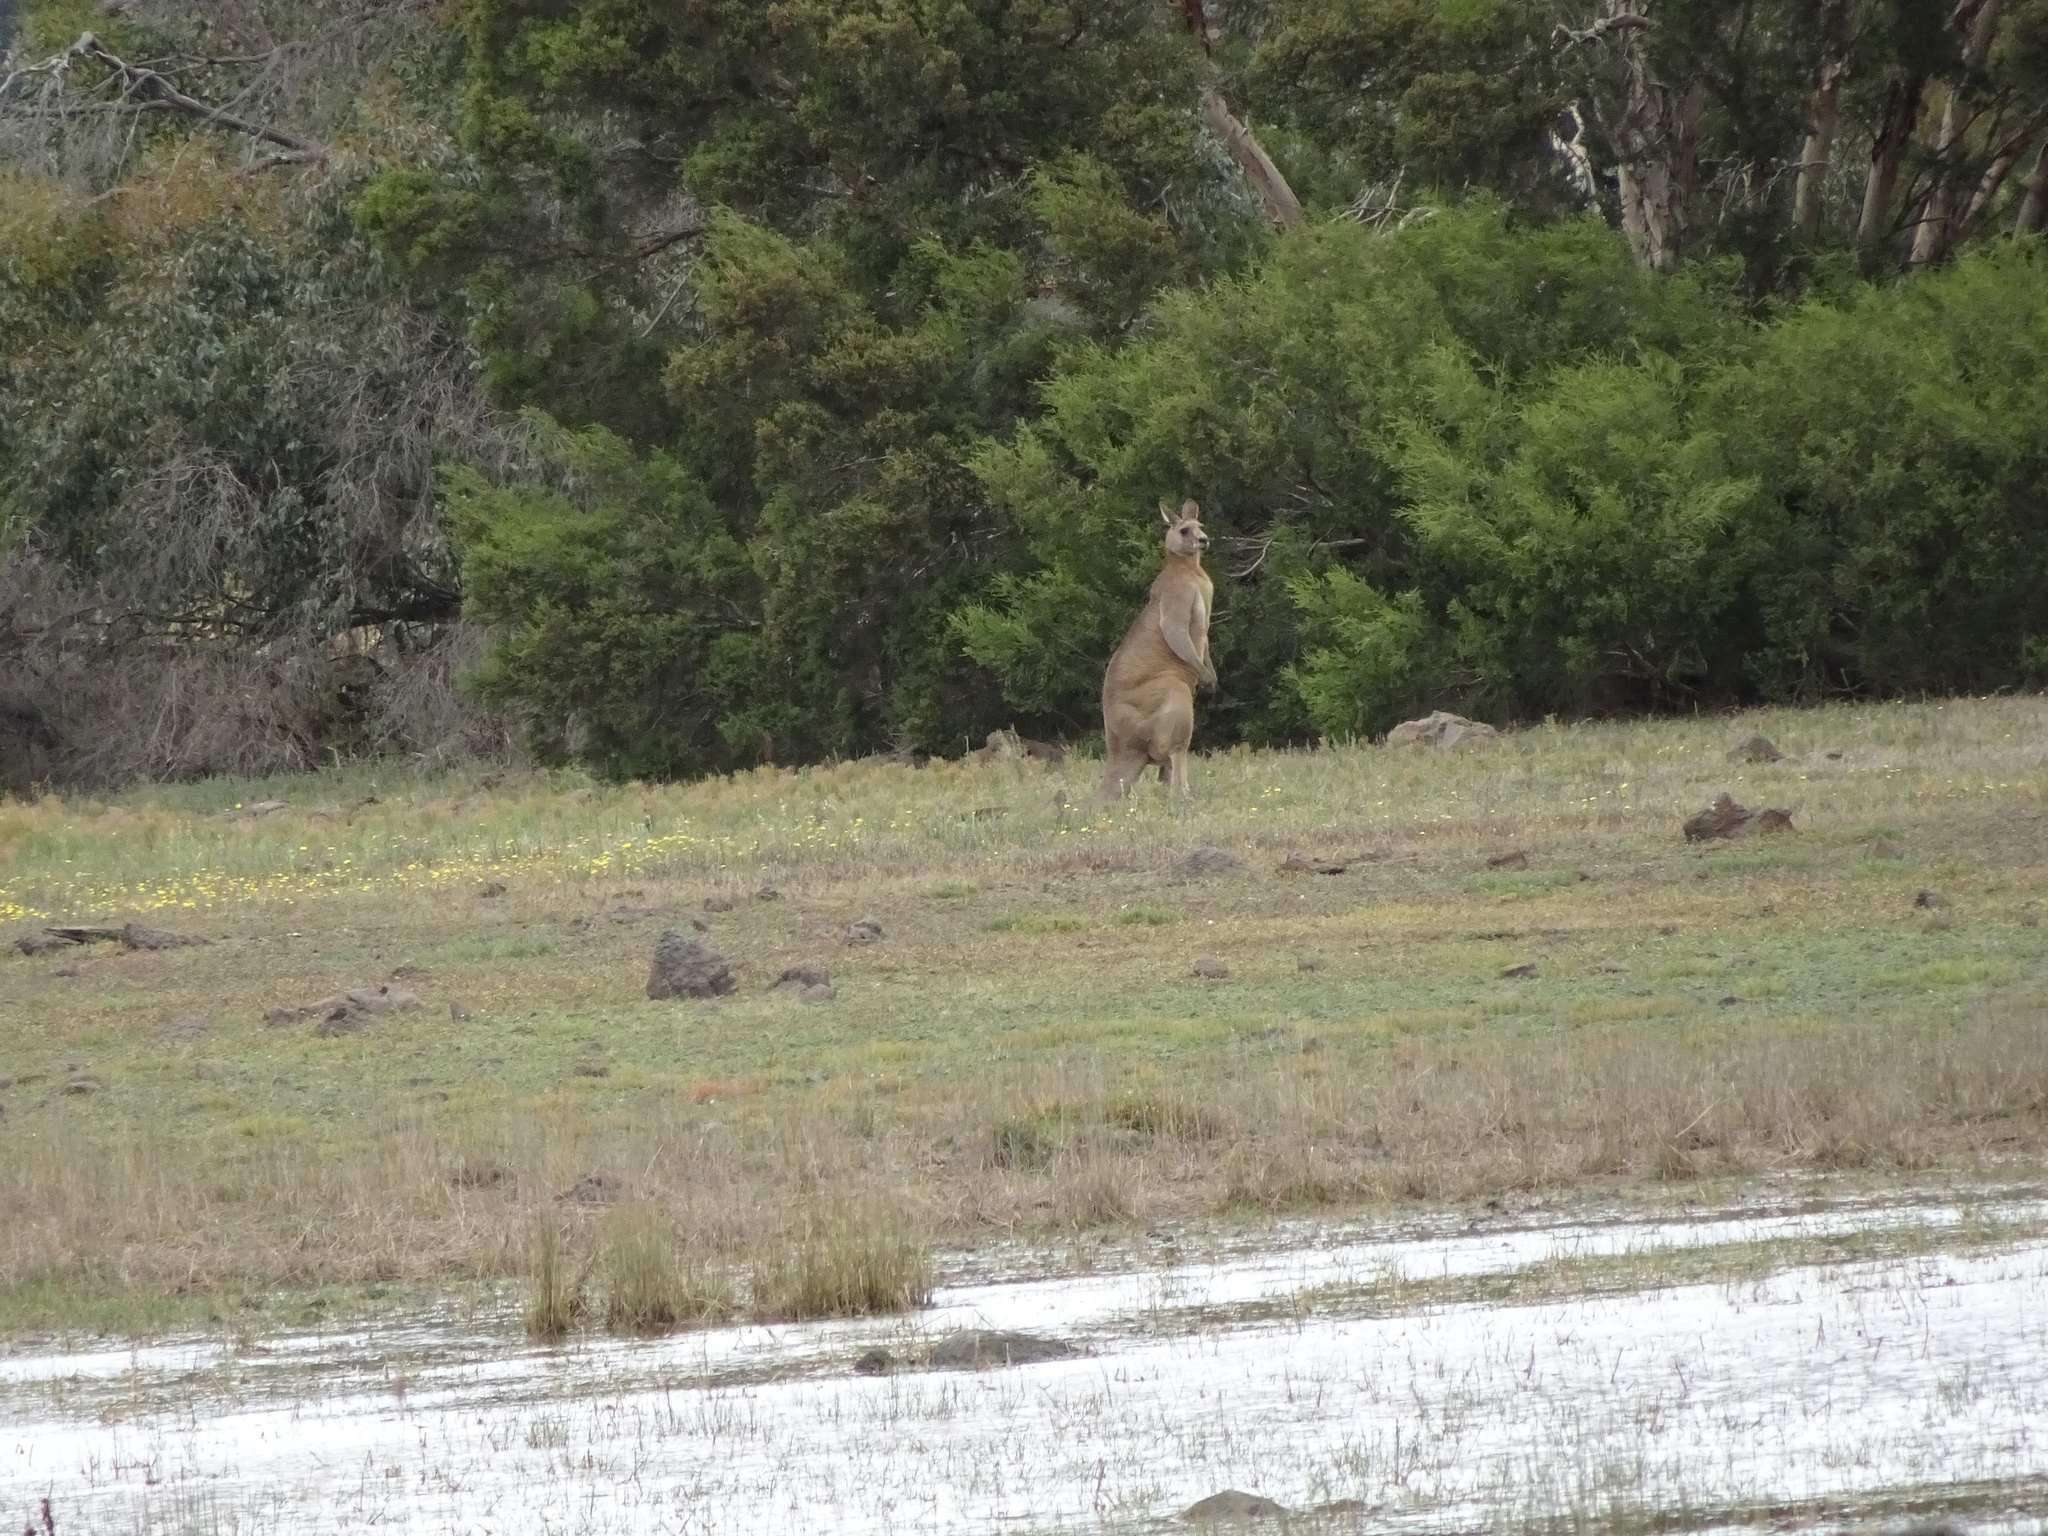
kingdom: Animalia
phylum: Chordata
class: Mammalia
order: Diprotodontia
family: Macropodidae
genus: Macropus
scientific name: Macropus giganteus
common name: Eastern grey kangaroo
